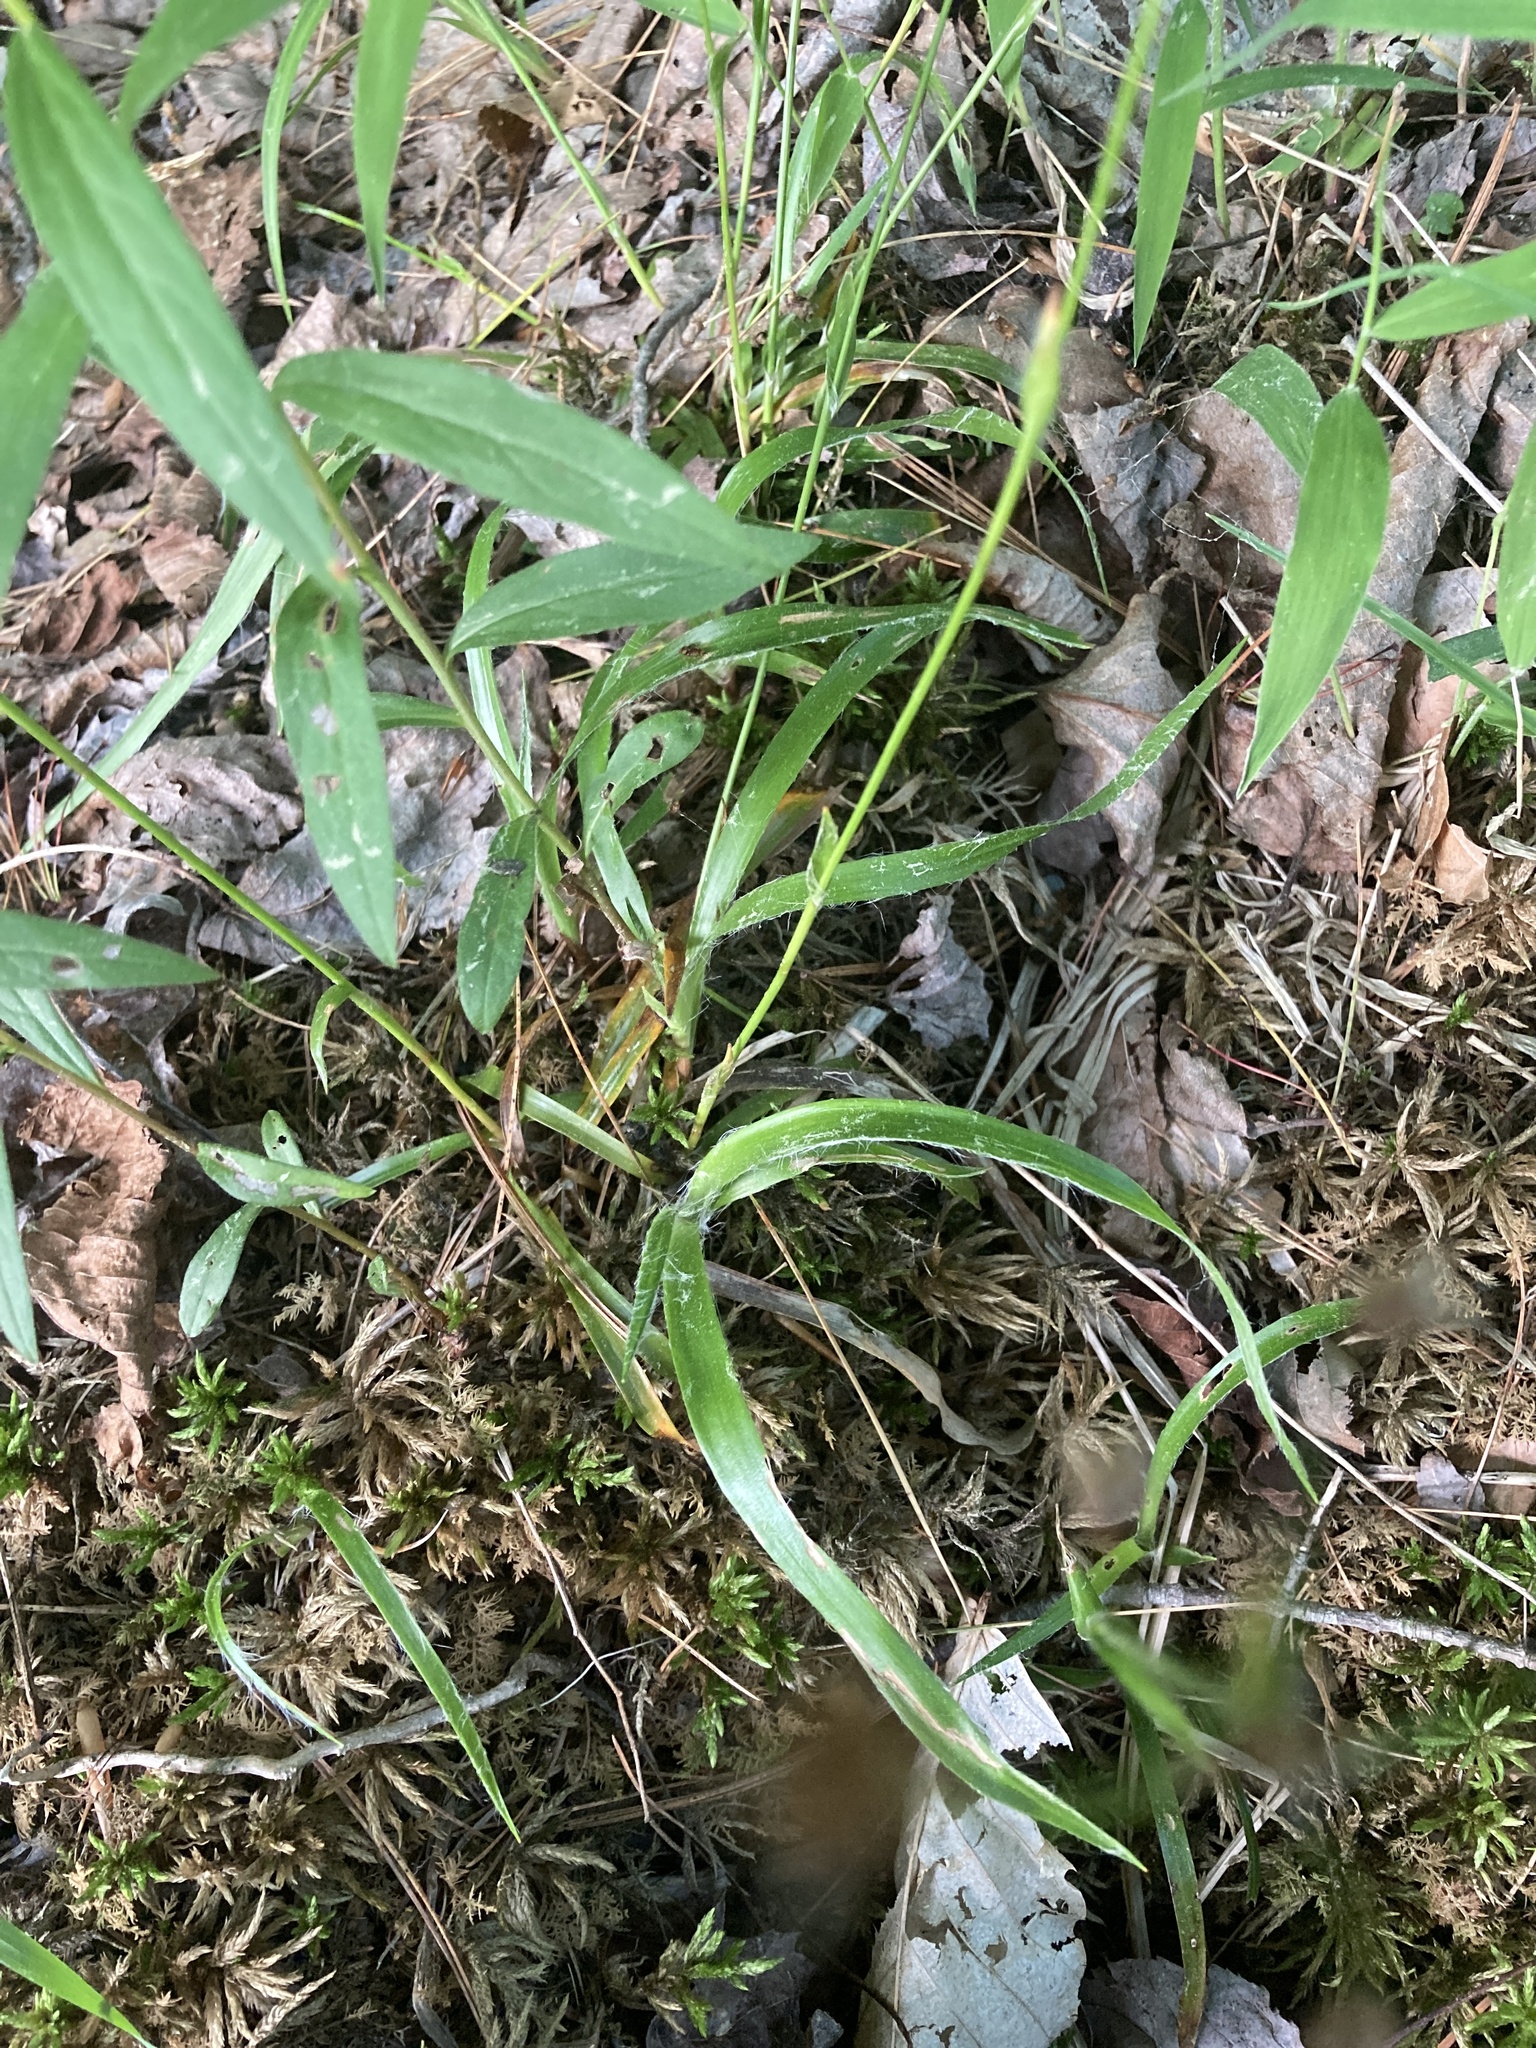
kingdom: Plantae
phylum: Tracheophyta
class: Liliopsida
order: Poales
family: Juncaceae
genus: Luzula
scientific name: Luzula acuminata
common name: Hairy woodrush
